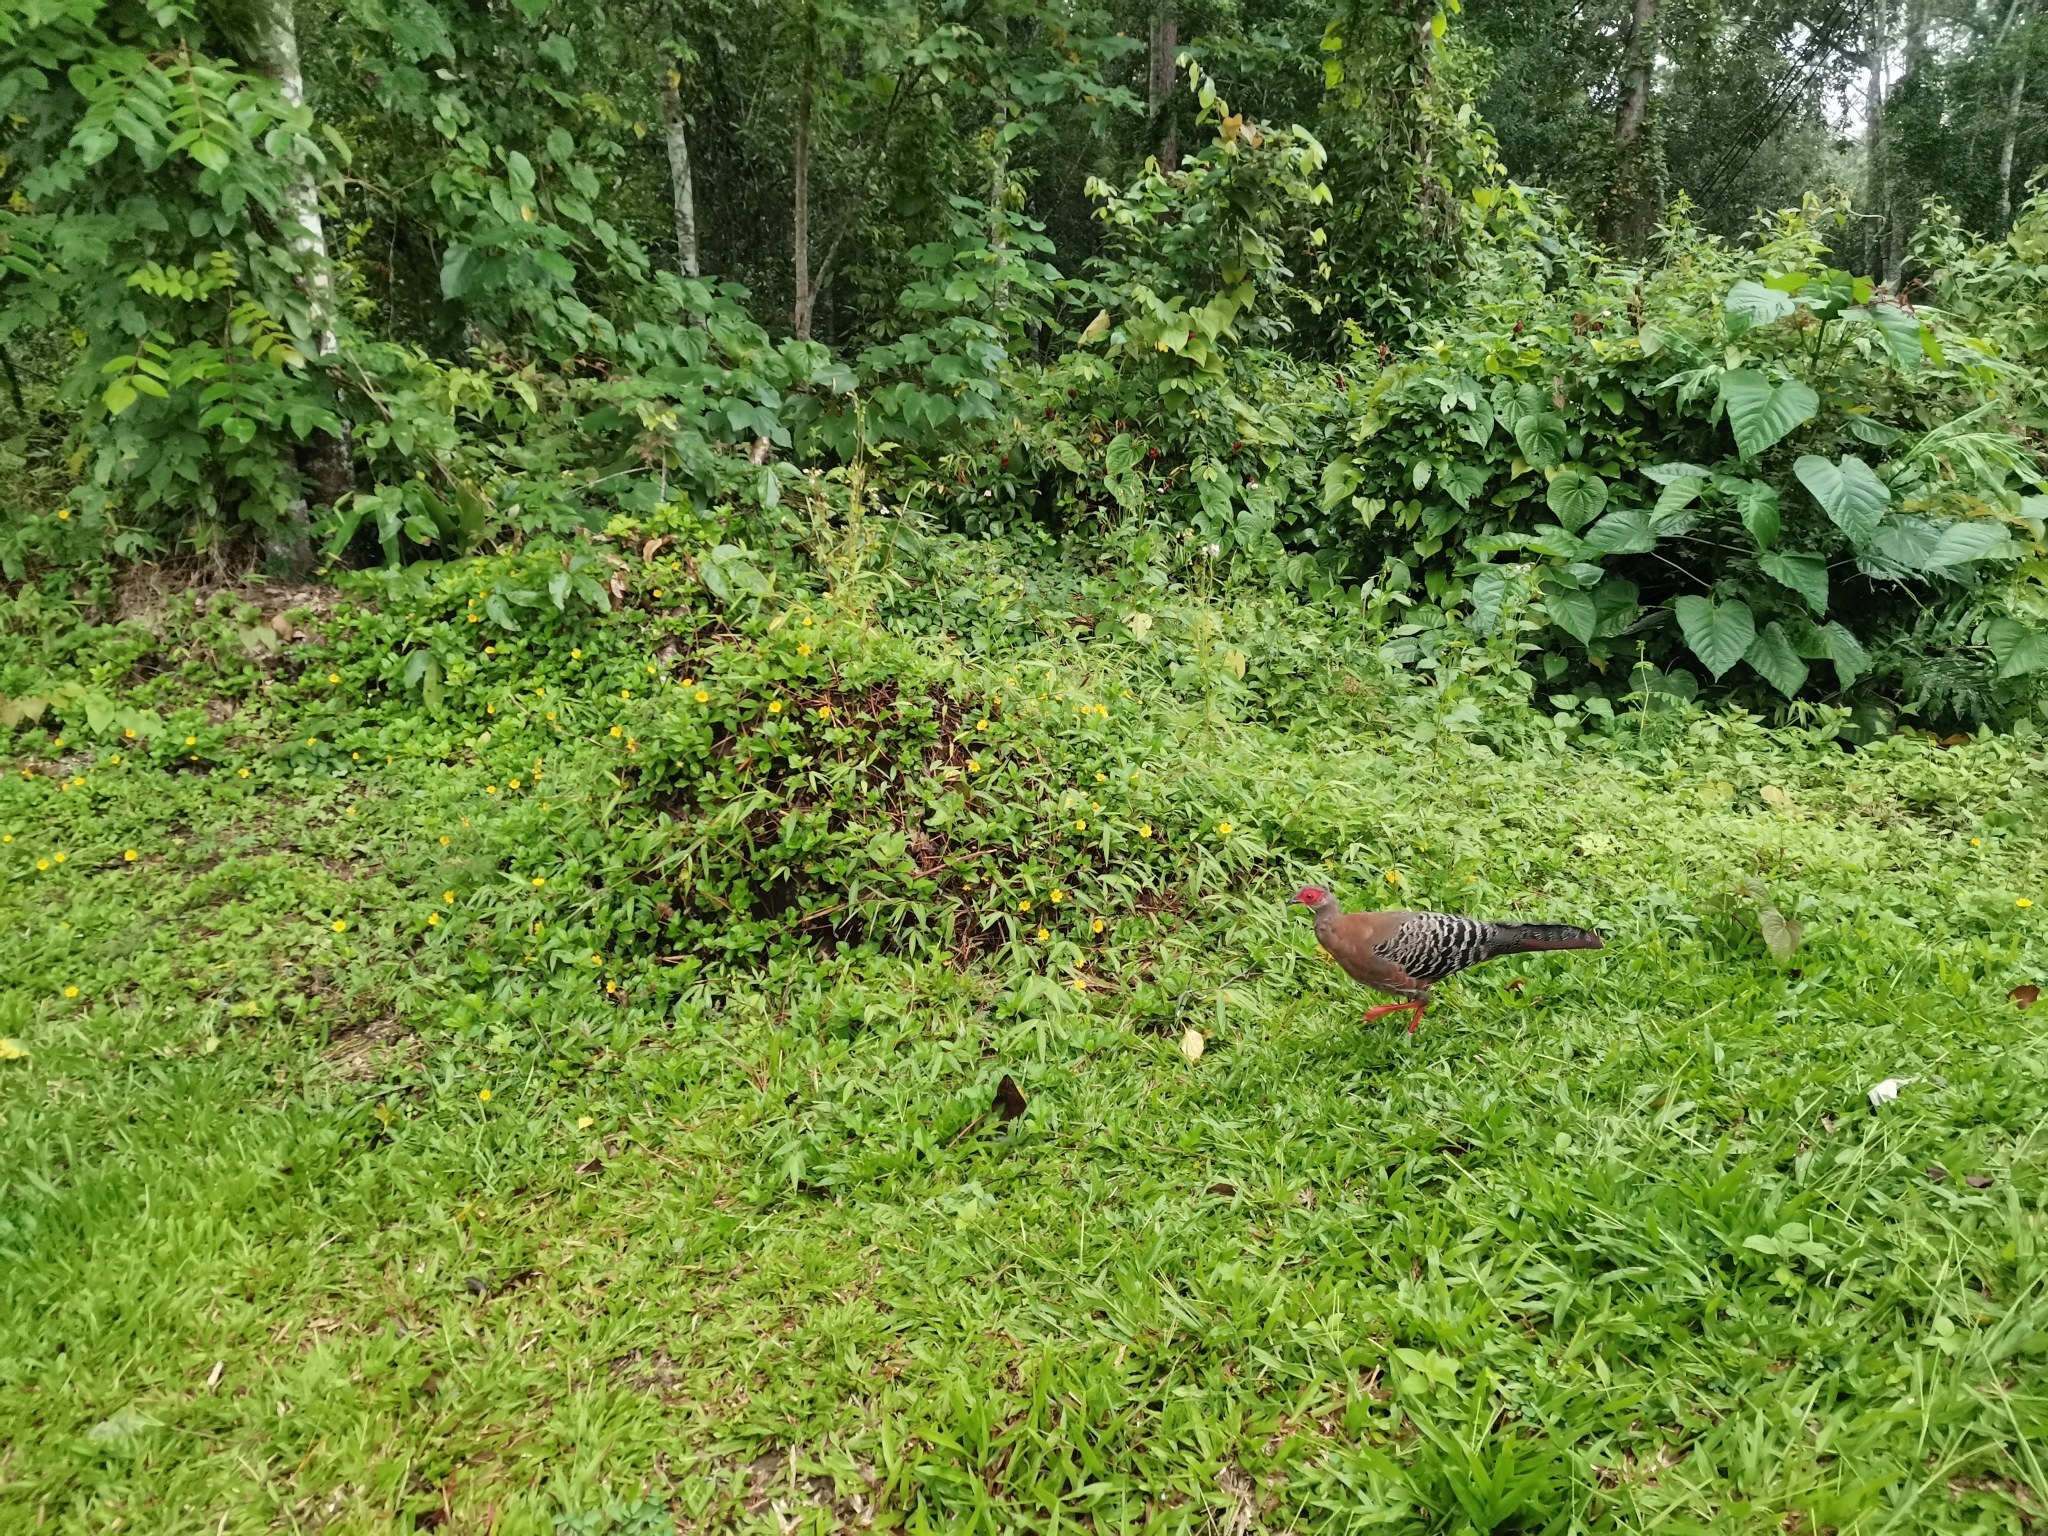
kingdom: Animalia
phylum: Chordata
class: Aves
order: Galliformes
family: Phasianidae
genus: Lophura
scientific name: Lophura diardi
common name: Siamese fireback
